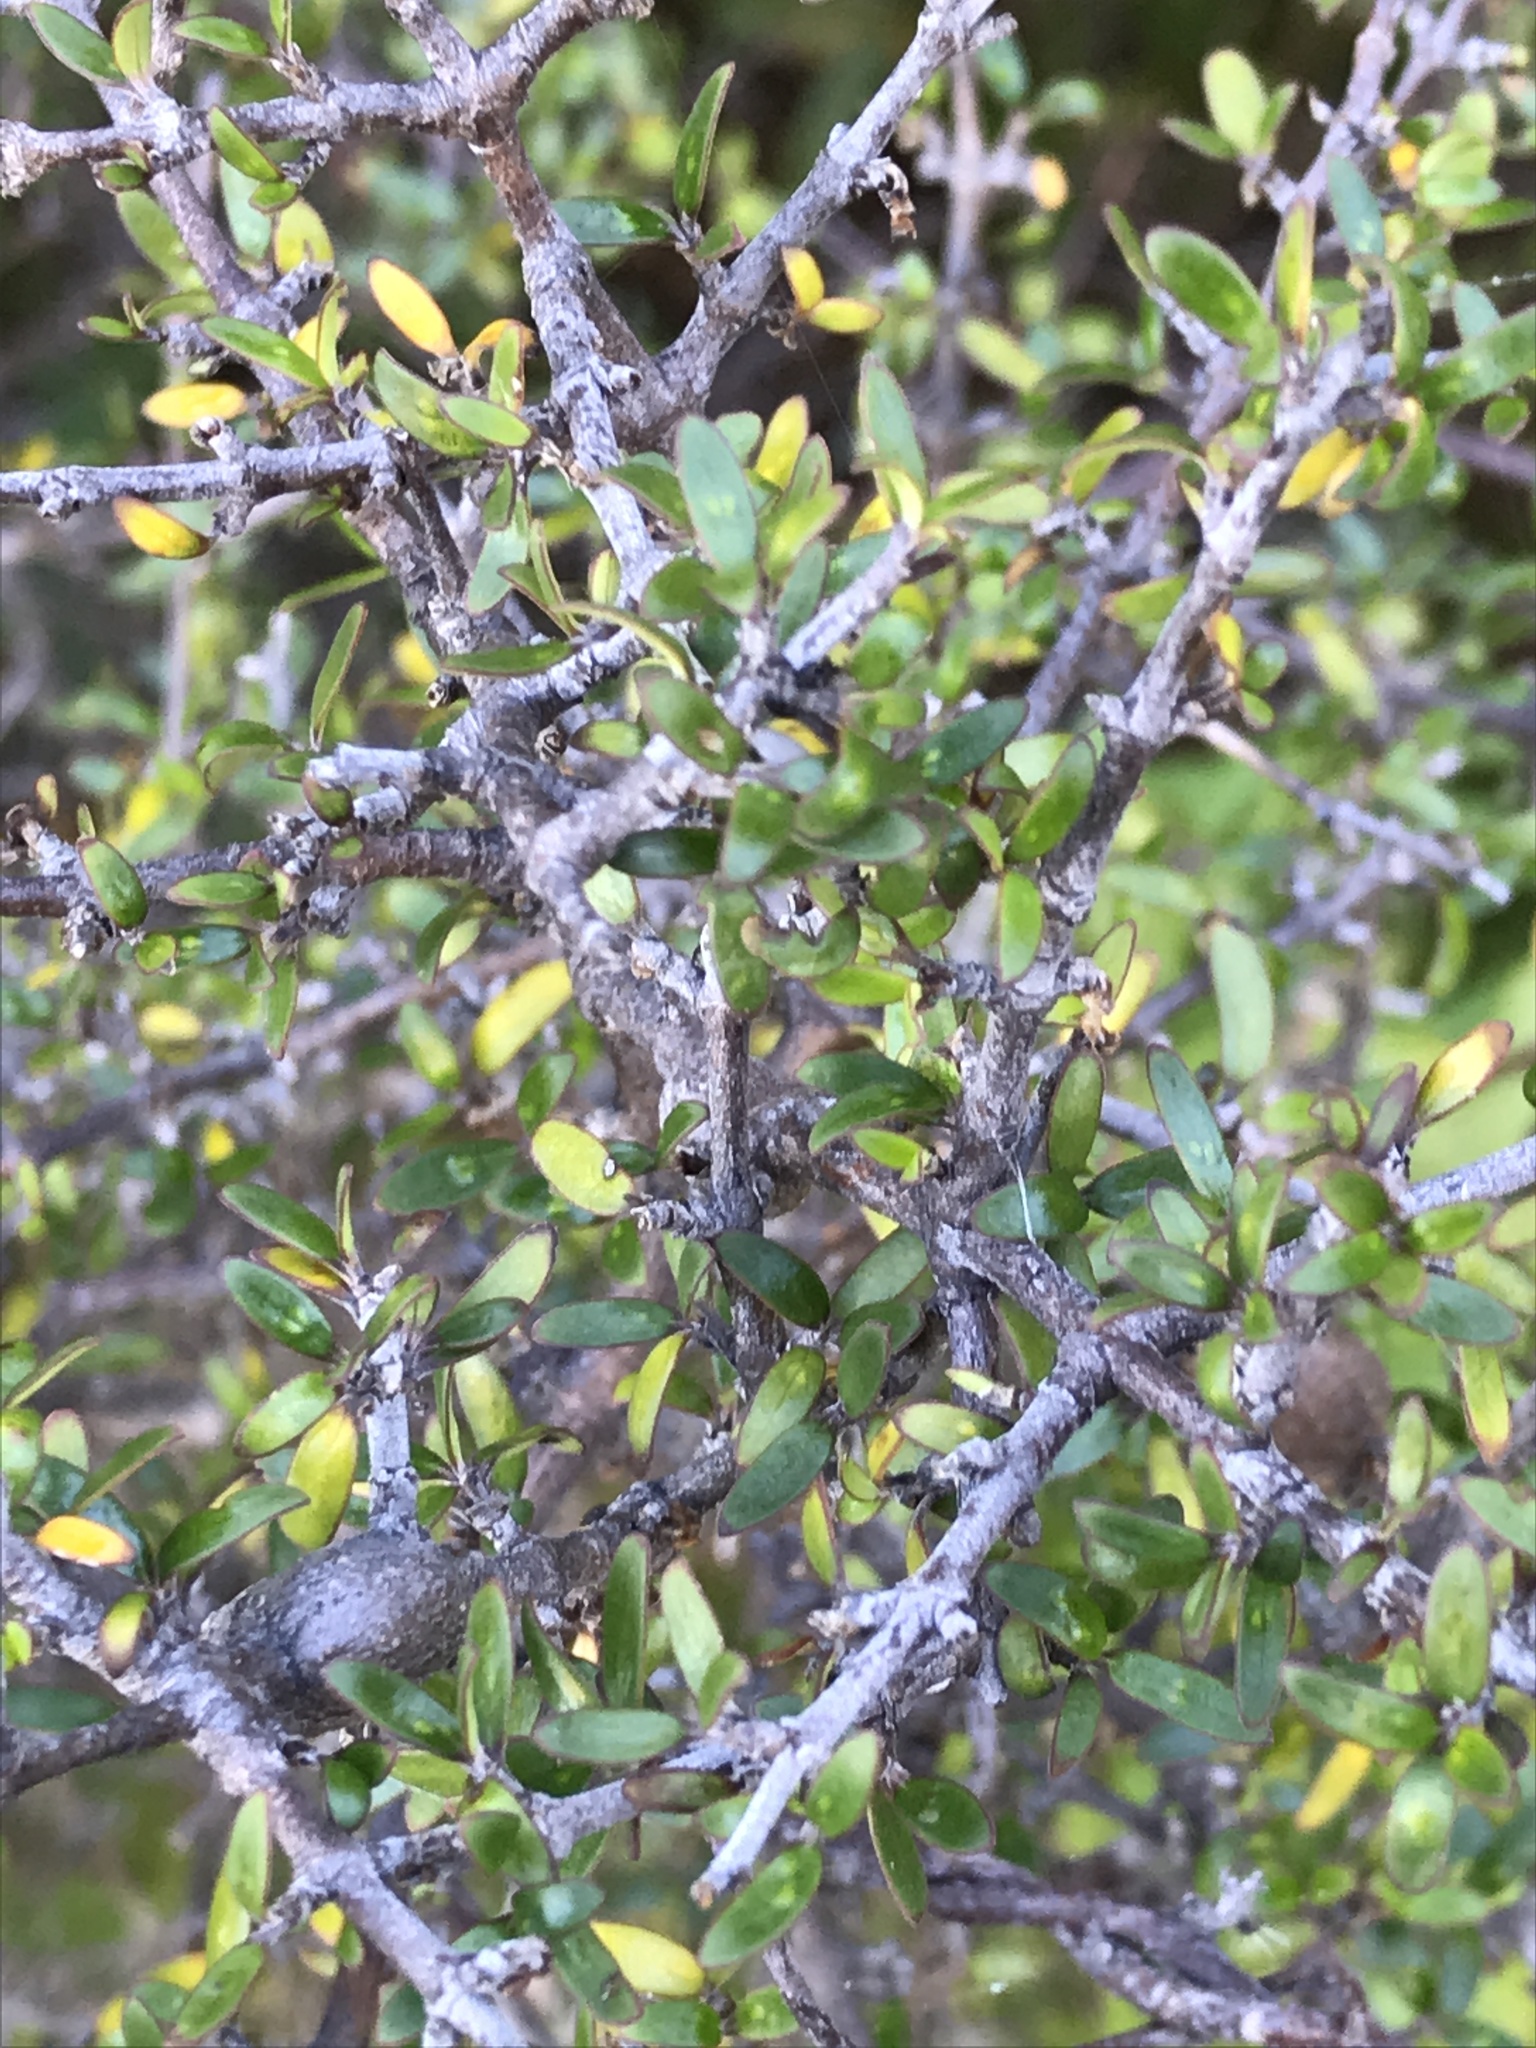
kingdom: Plantae
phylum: Tracheophyta
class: Magnoliopsida
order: Gentianales
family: Rubiaceae
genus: Coprosma
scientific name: Coprosma propinqua
